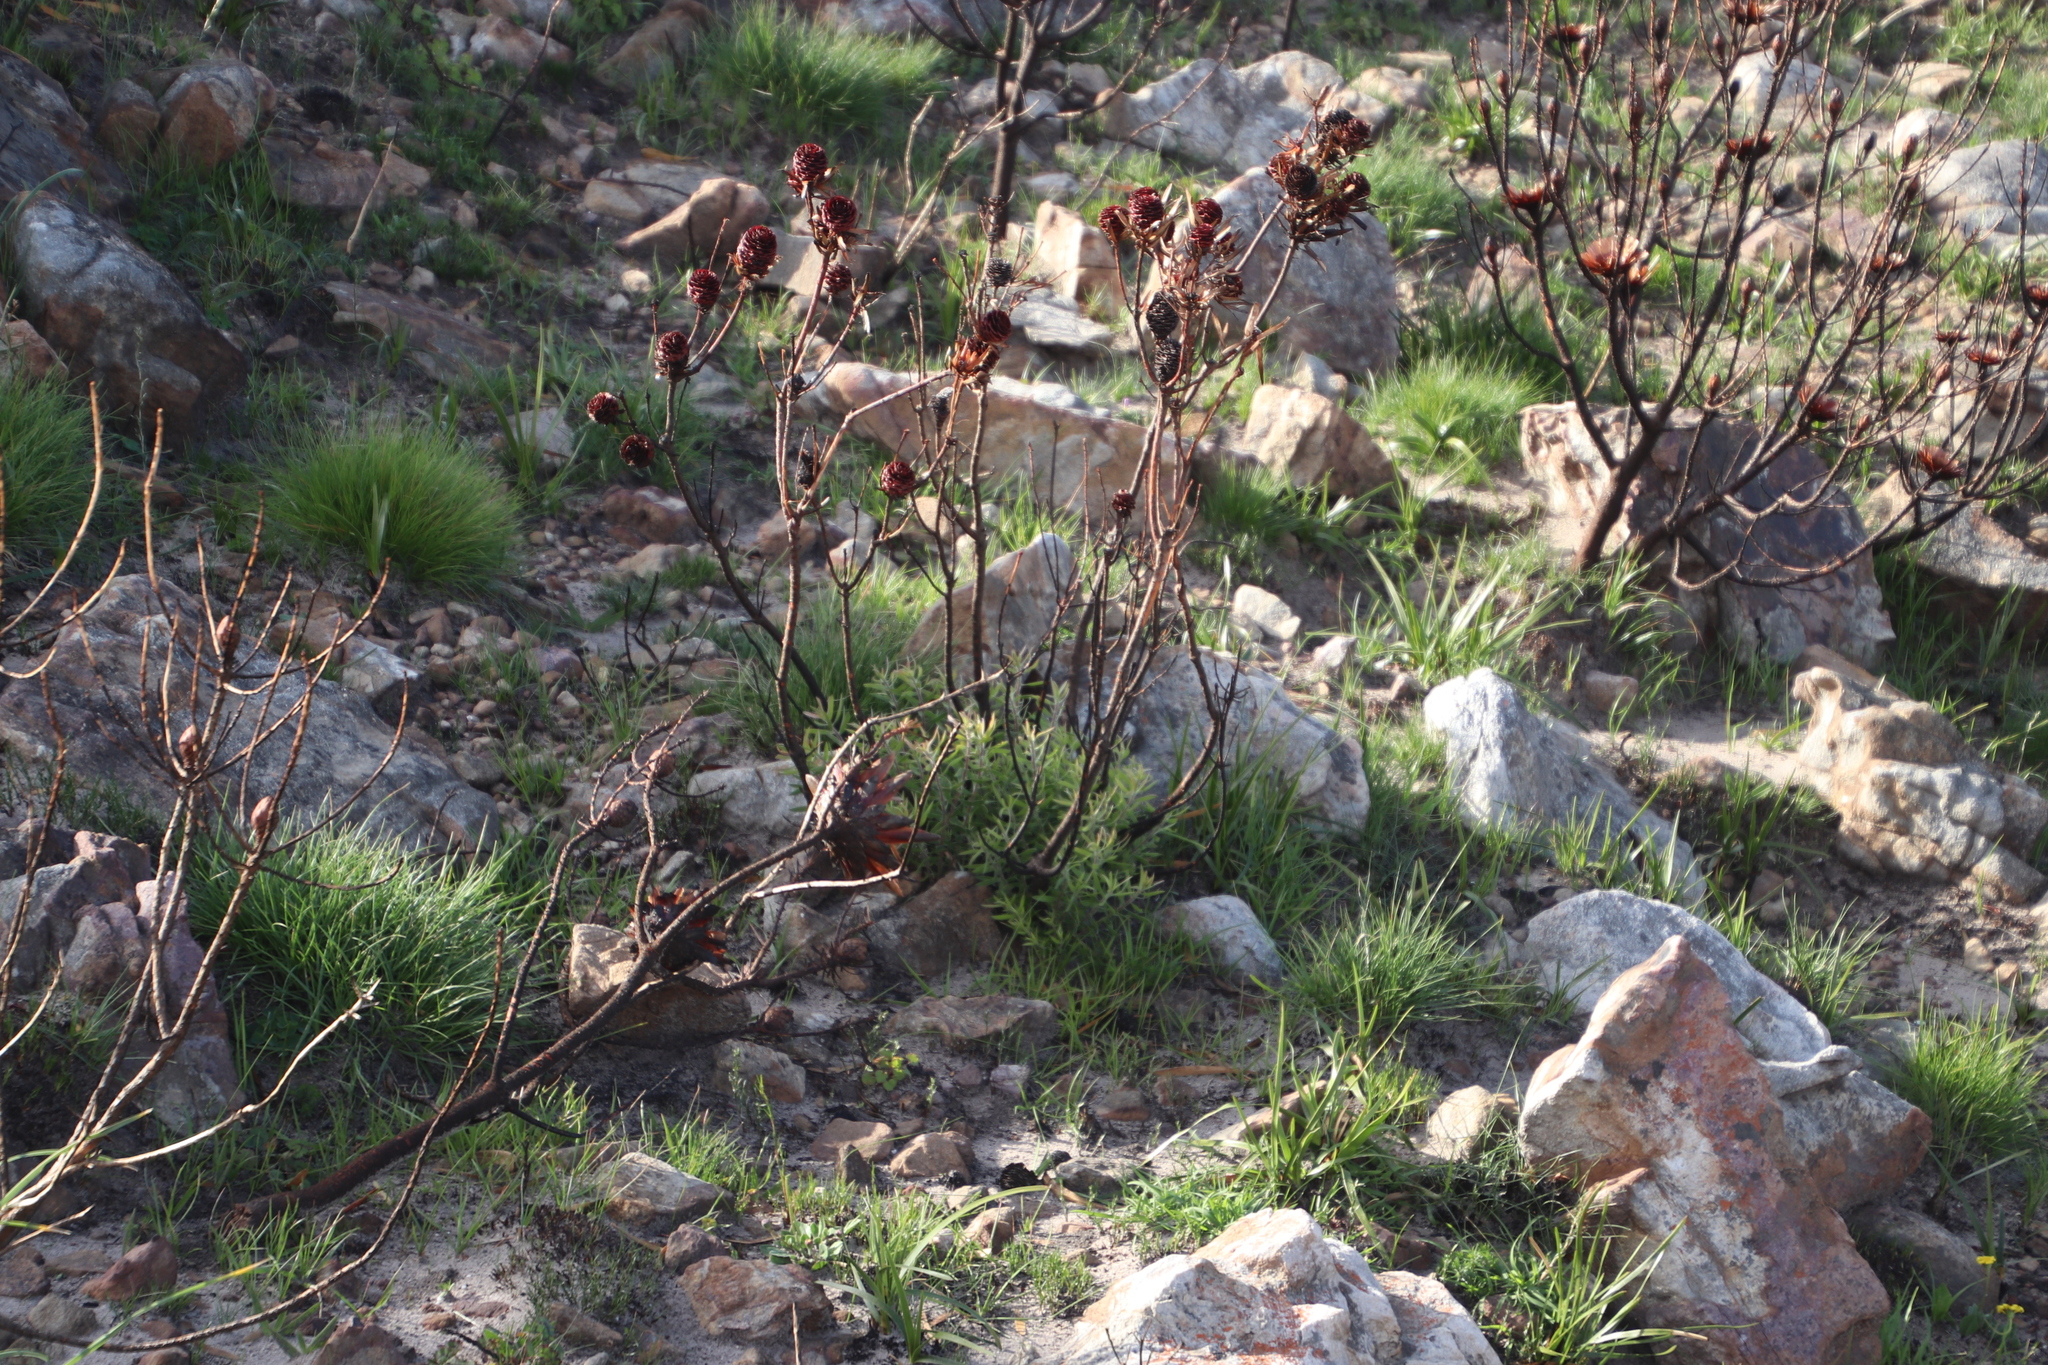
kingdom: Plantae
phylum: Tracheophyta
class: Magnoliopsida
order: Proteales
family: Proteaceae
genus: Leucadendron
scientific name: Leucadendron spissifolium
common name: Spear-leaf conebush
